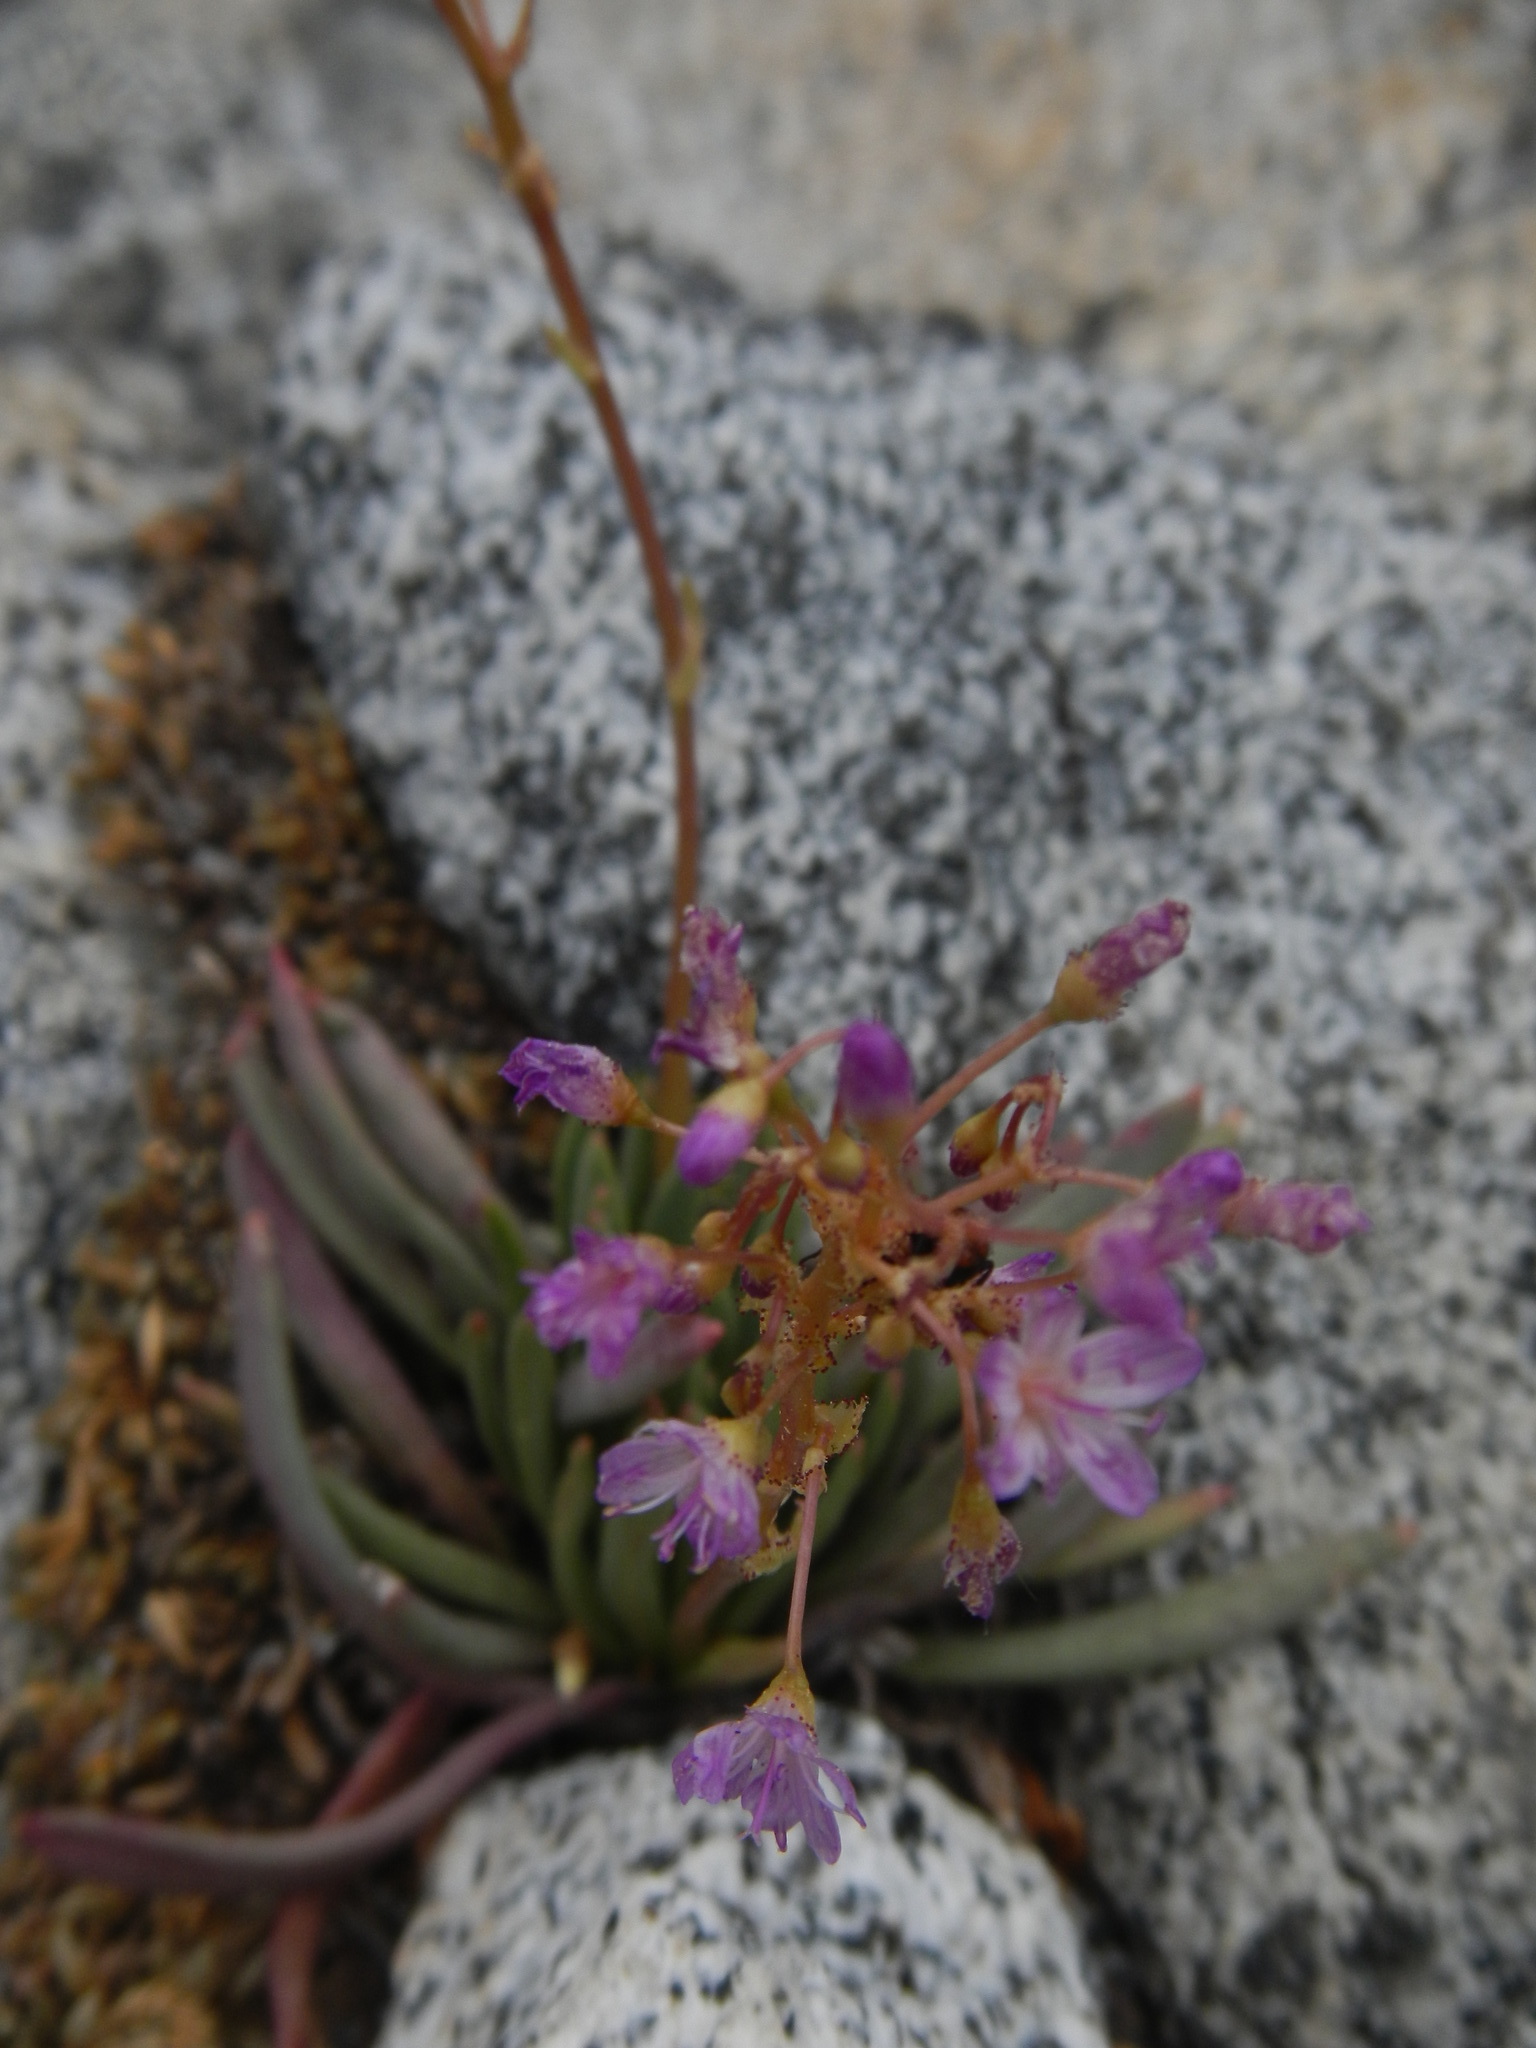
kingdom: Plantae
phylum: Tracheophyta
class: Magnoliopsida
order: Caryophyllales
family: Montiaceae
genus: Lewisia
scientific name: Lewisia leeana
